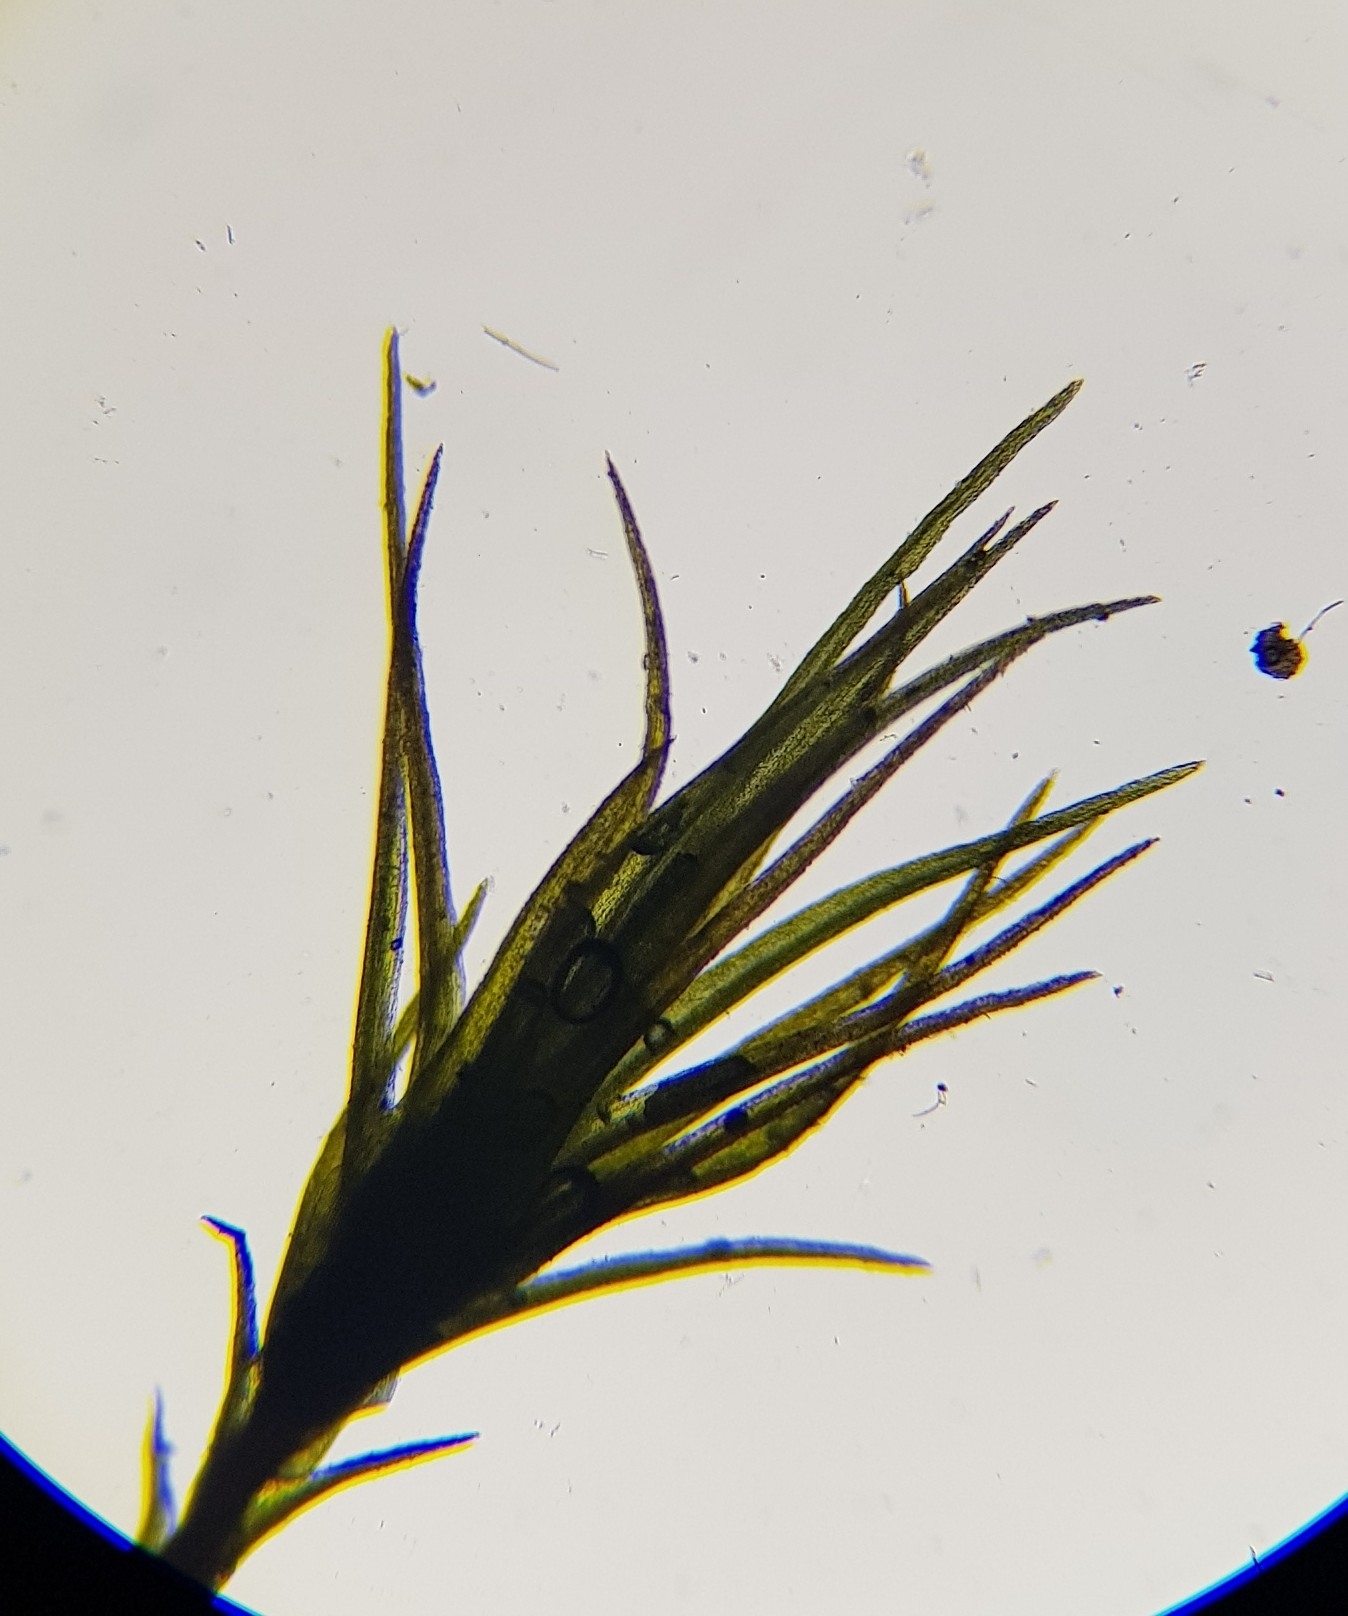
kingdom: Plantae
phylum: Bryophyta
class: Bryopsida
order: Dicranales
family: Ditrichaceae
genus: Pleuridium
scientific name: Pleuridium acuminatum
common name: Taper-leaved earth-moss
